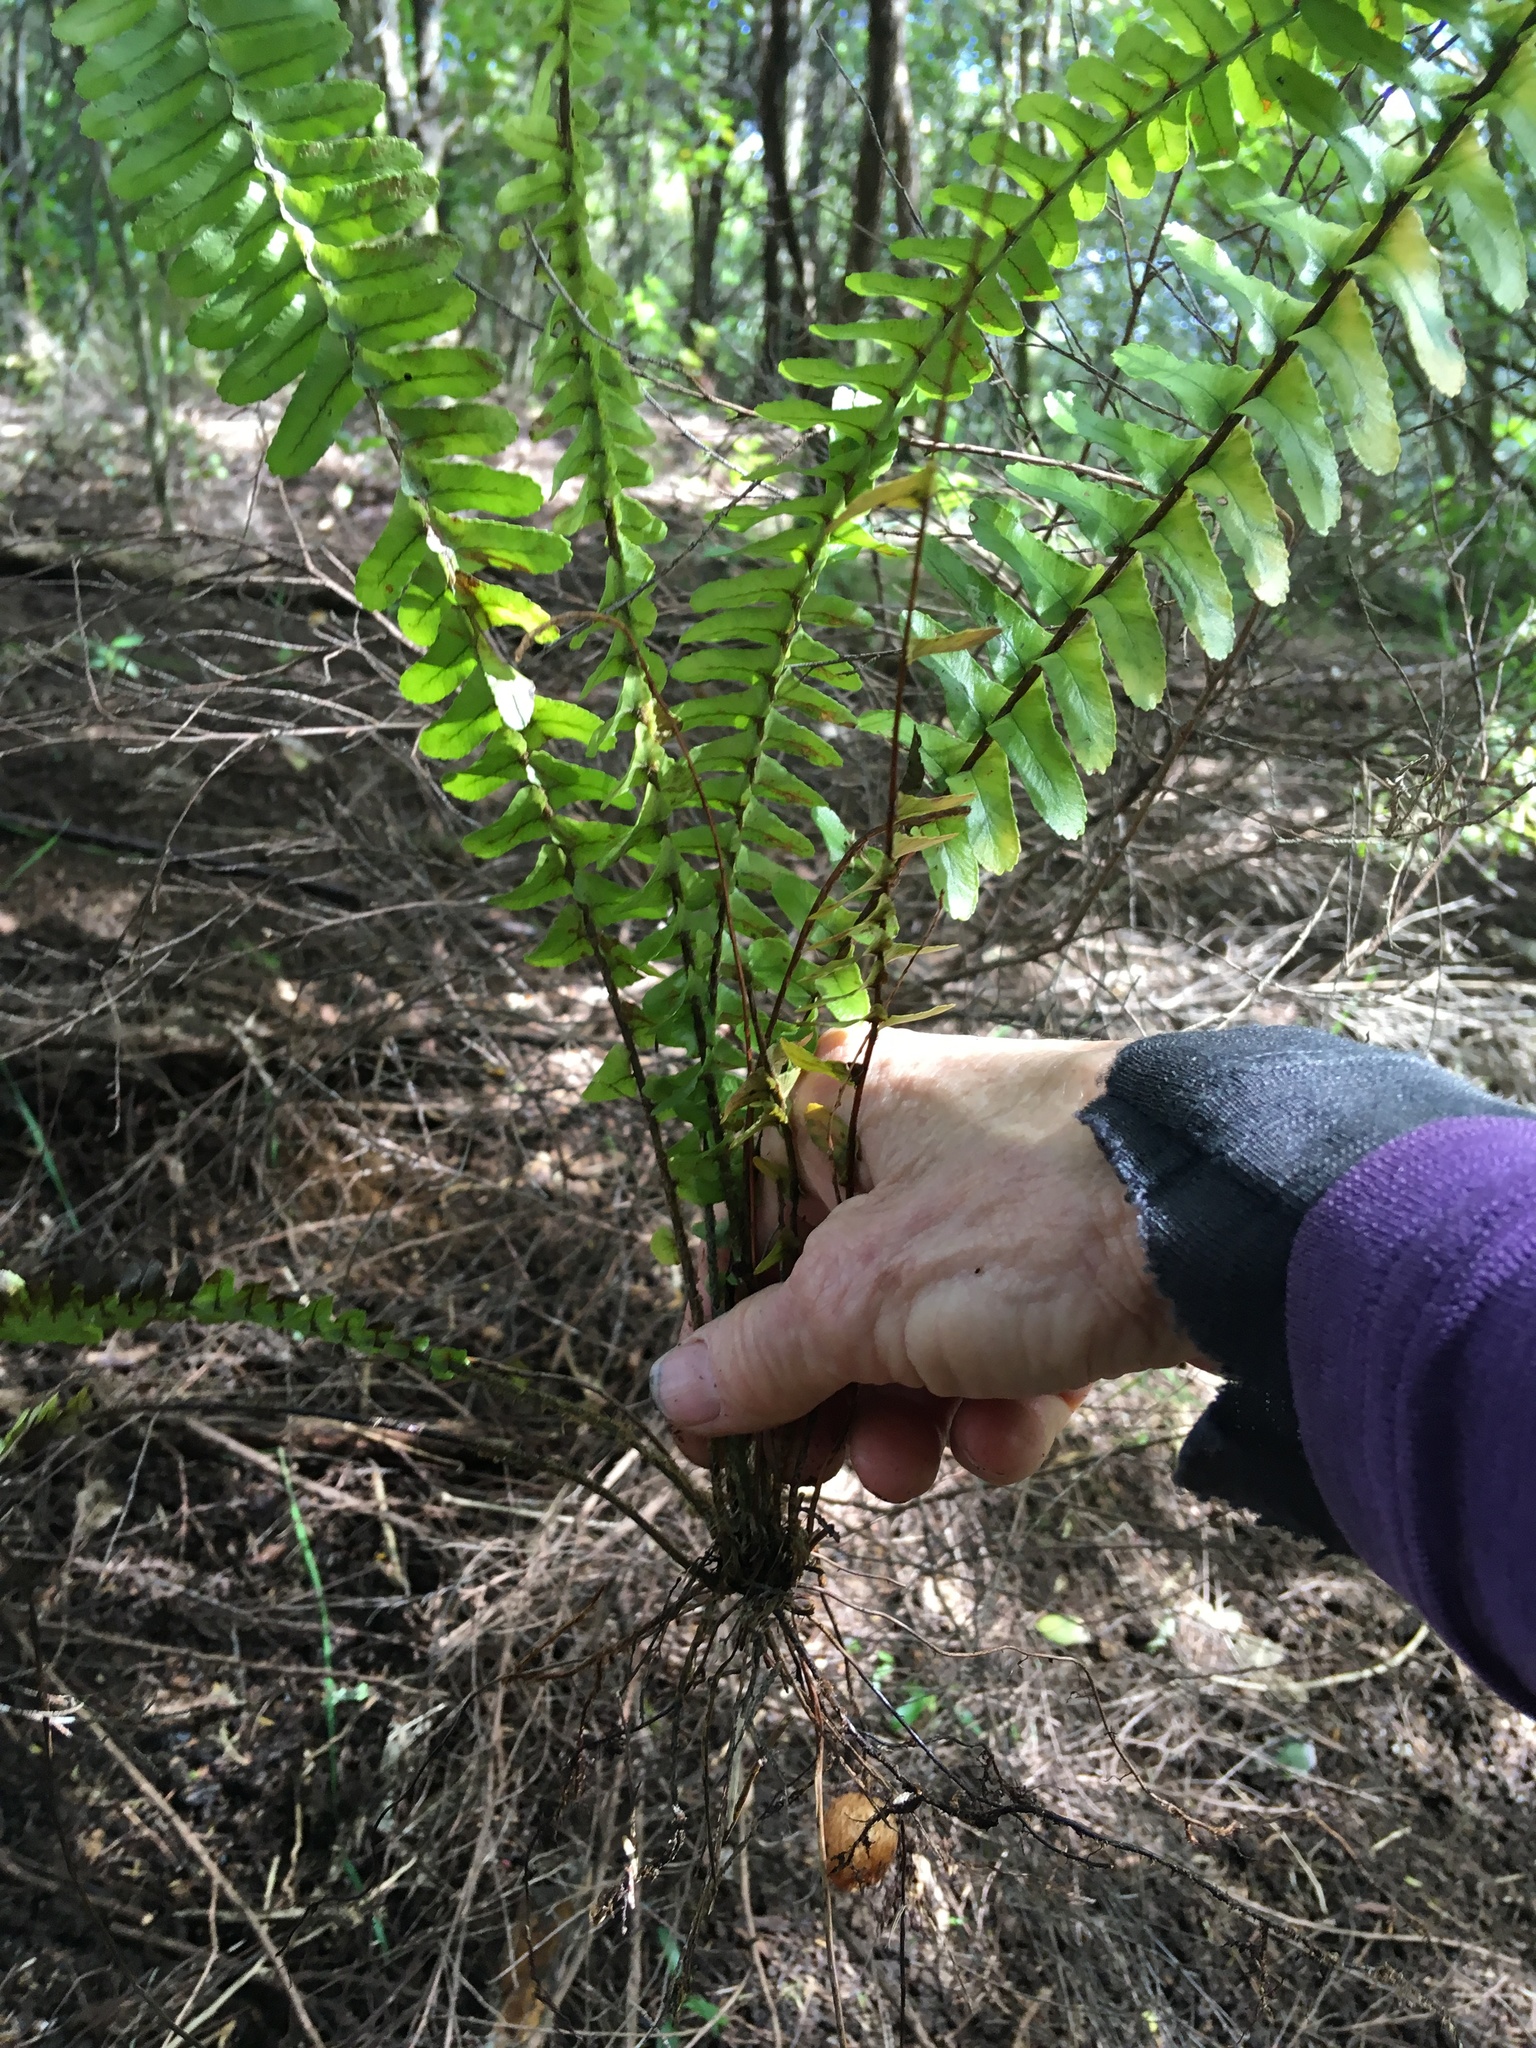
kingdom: Plantae
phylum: Tracheophyta
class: Polypodiopsida
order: Polypodiales
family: Nephrolepidaceae
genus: Nephrolepis
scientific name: Nephrolepis cordifolia
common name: Narrow swordfern
